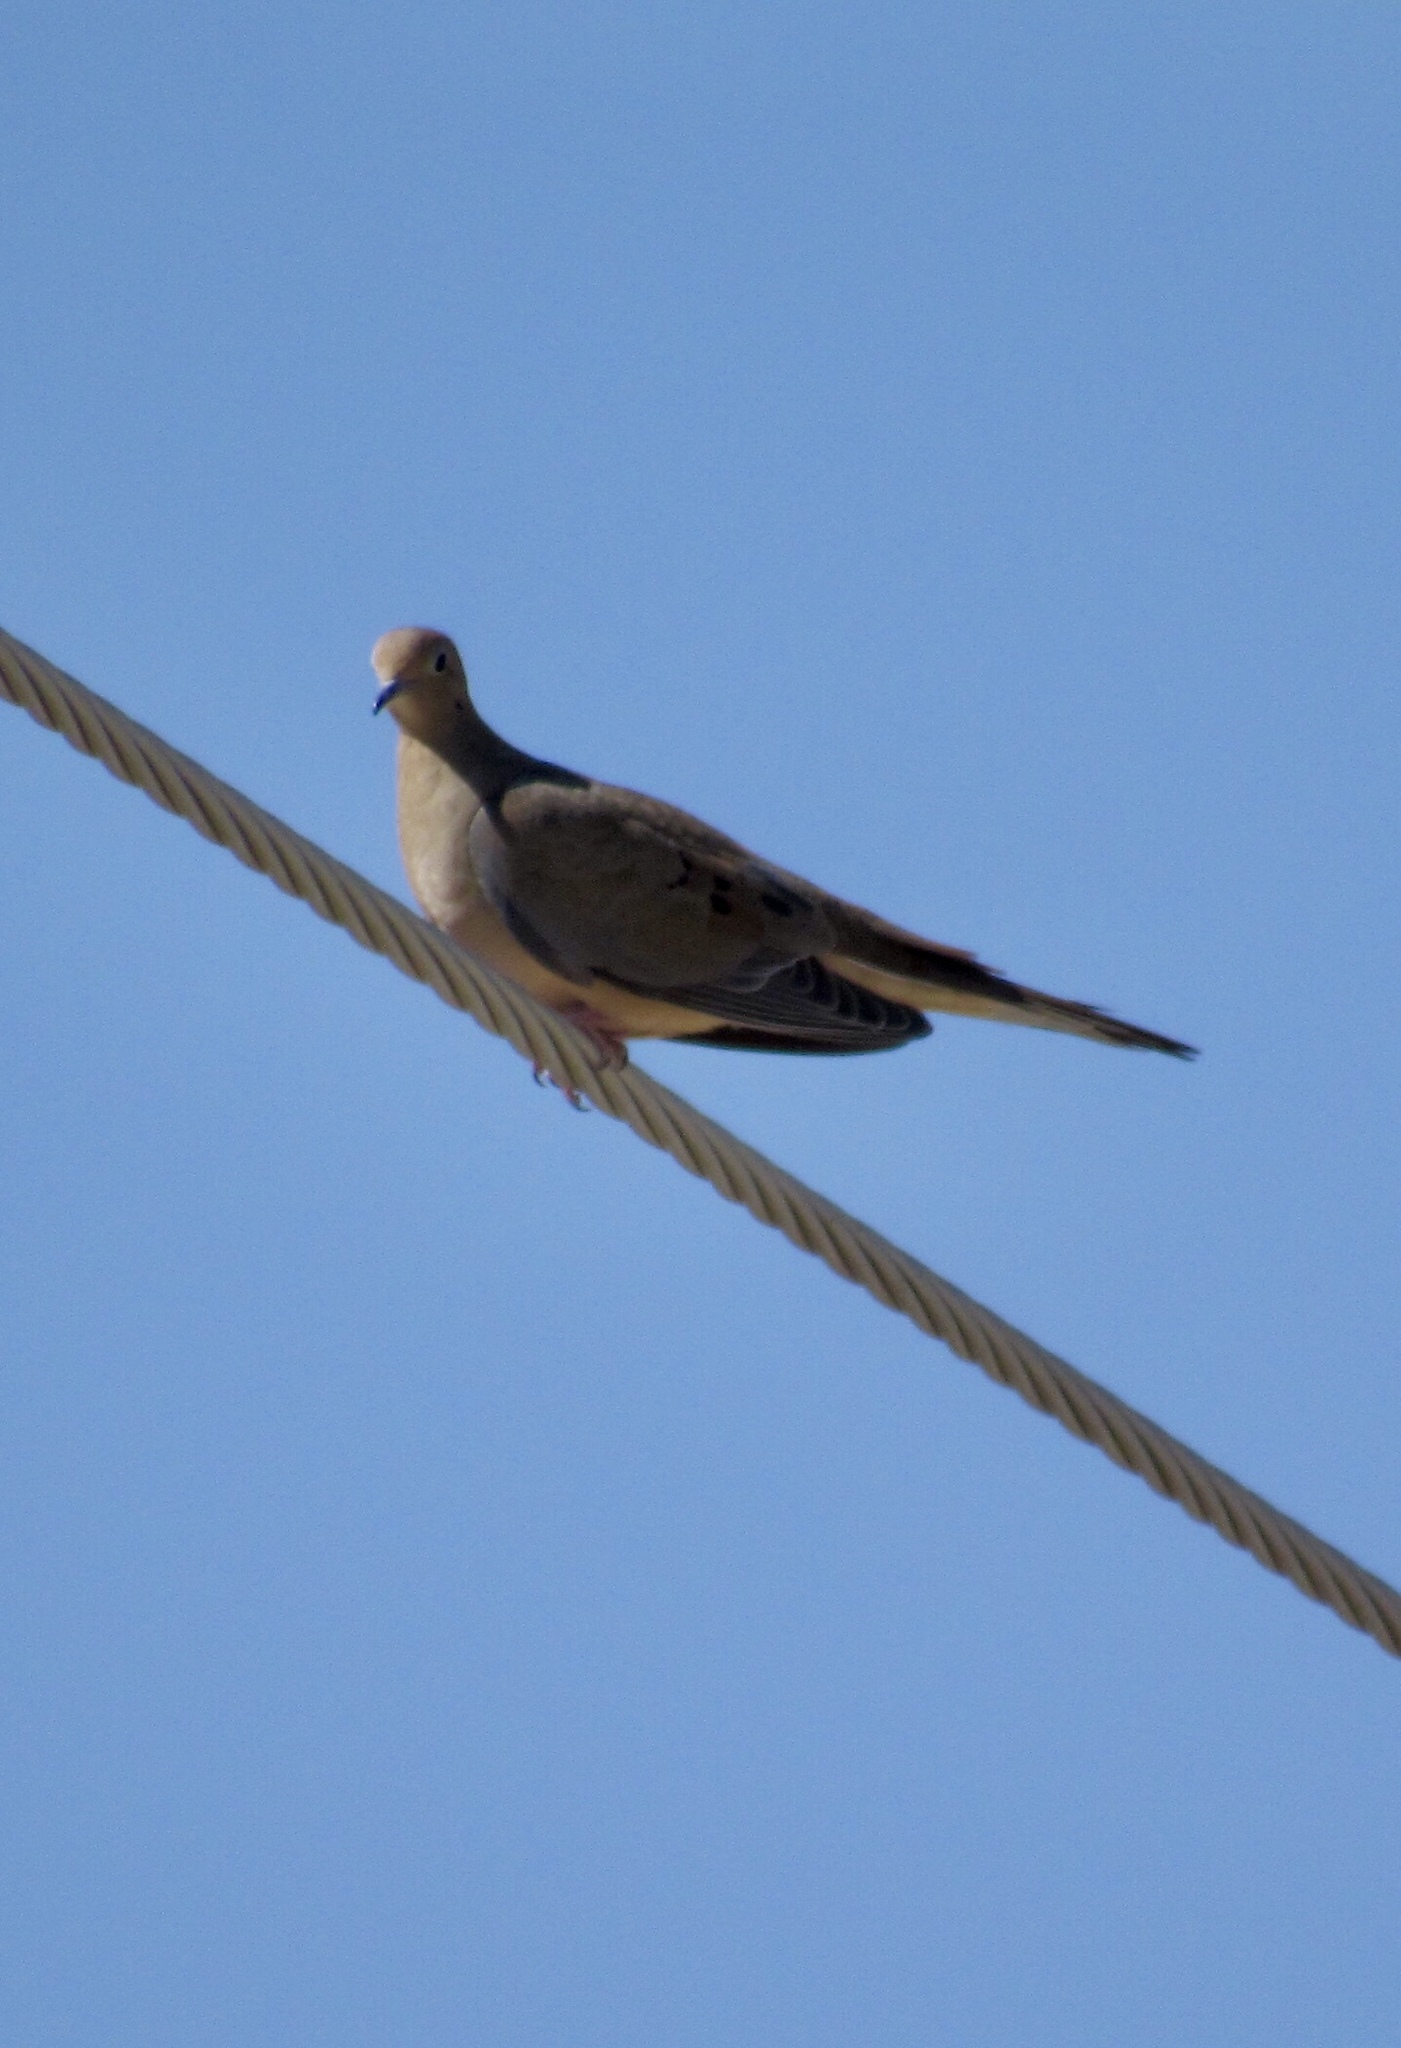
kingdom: Animalia
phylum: Chordata
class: Aves
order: Columbiformes
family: Columbidae
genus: Zenaida
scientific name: Zenaida macroura
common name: Mourning dove
